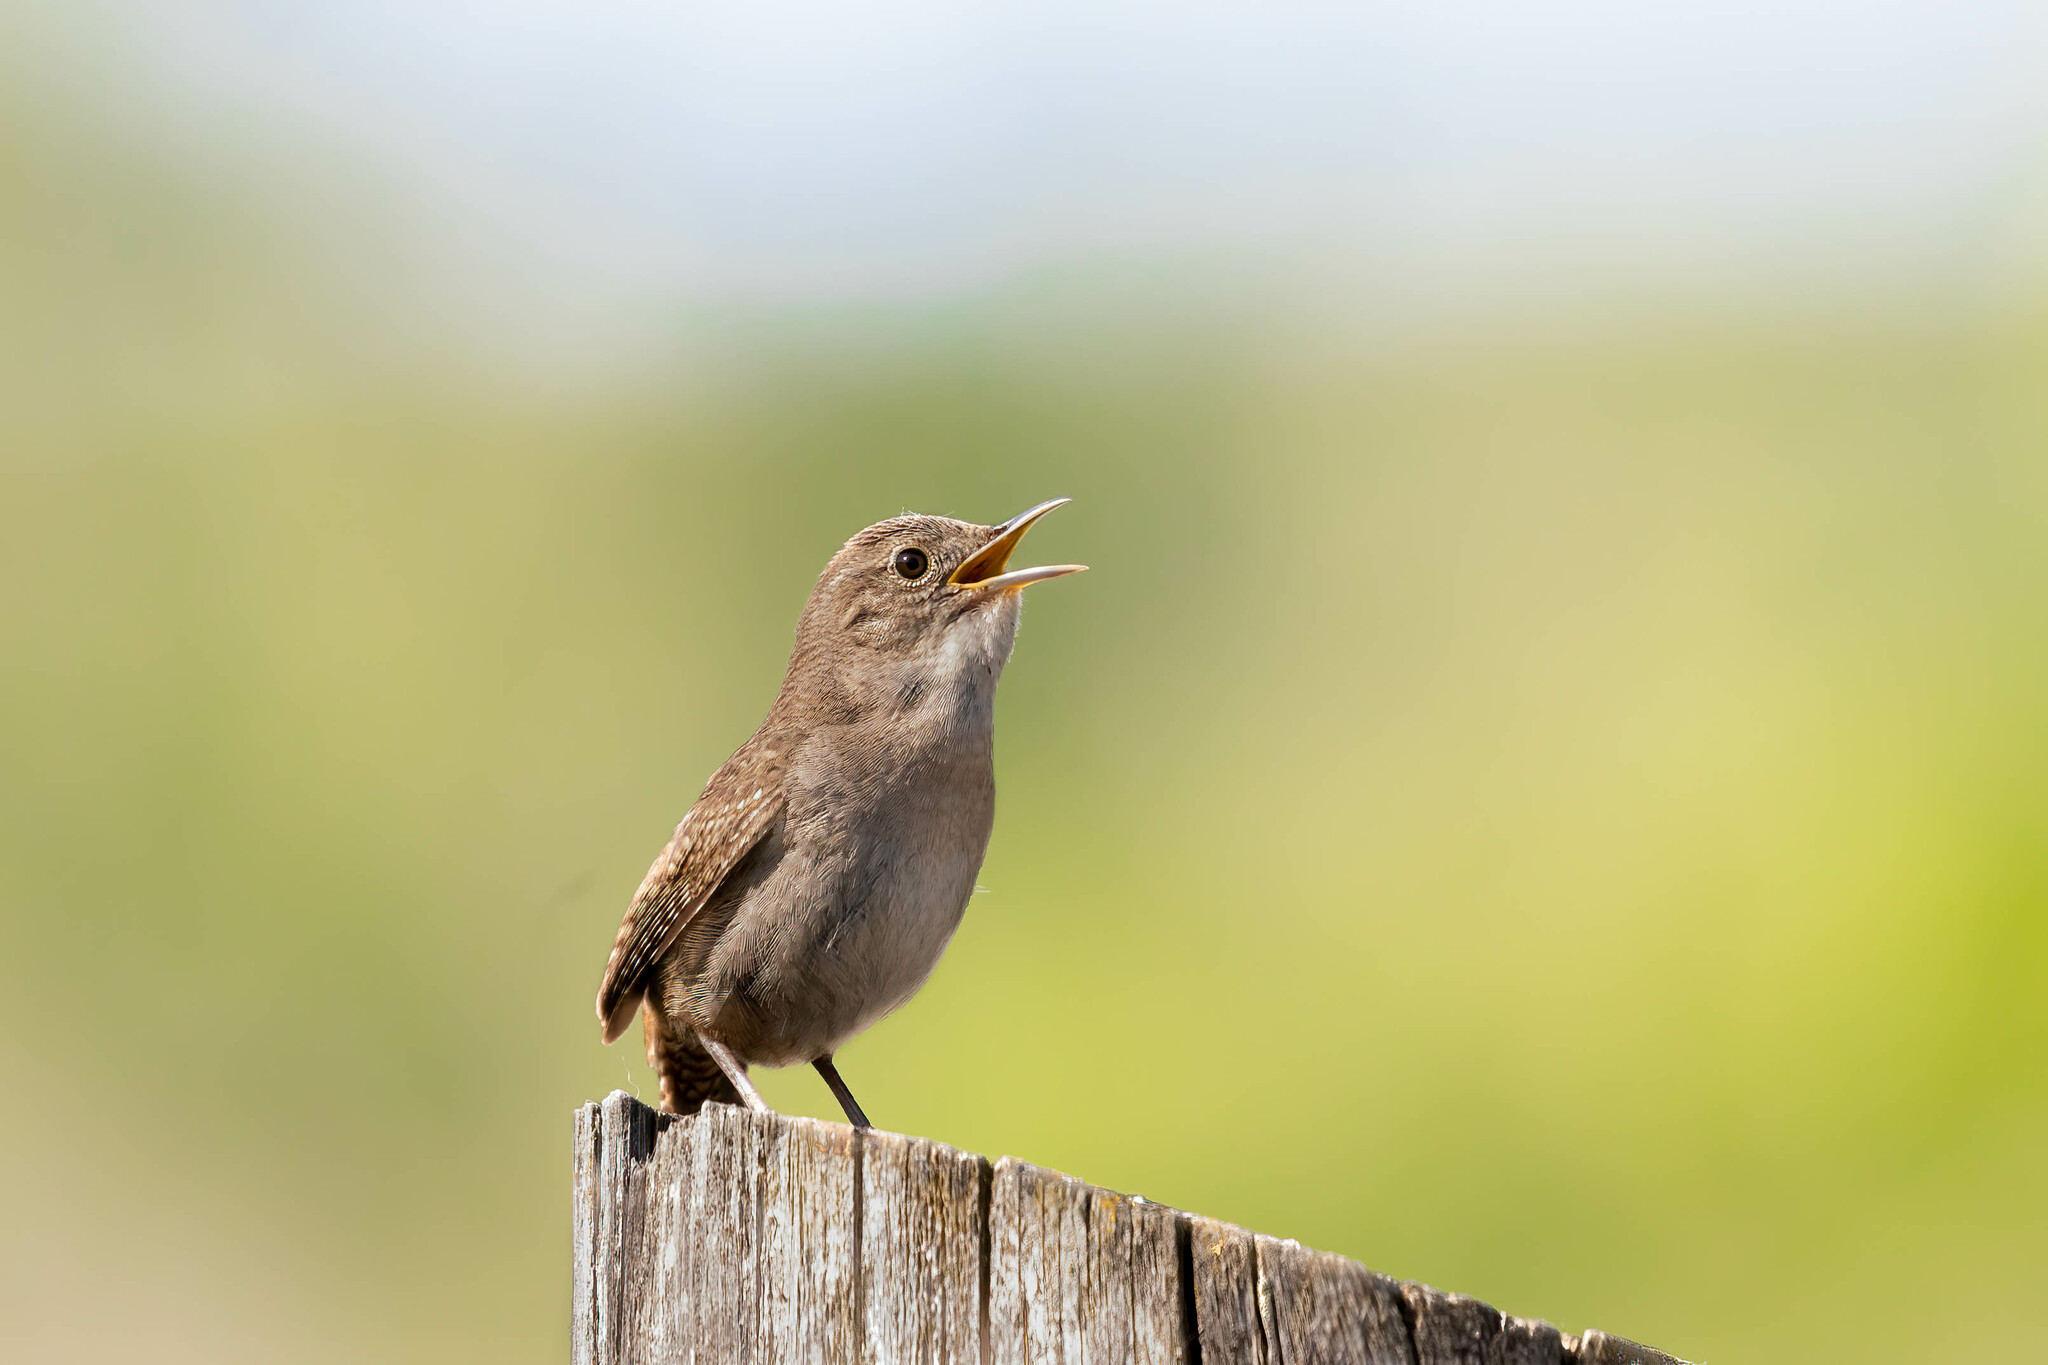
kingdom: Animalia
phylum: Chordata
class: Aves
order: Passeriformes
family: Troglodytidae
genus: Troglodytes
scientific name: Troglodytes aedon
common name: House wren
